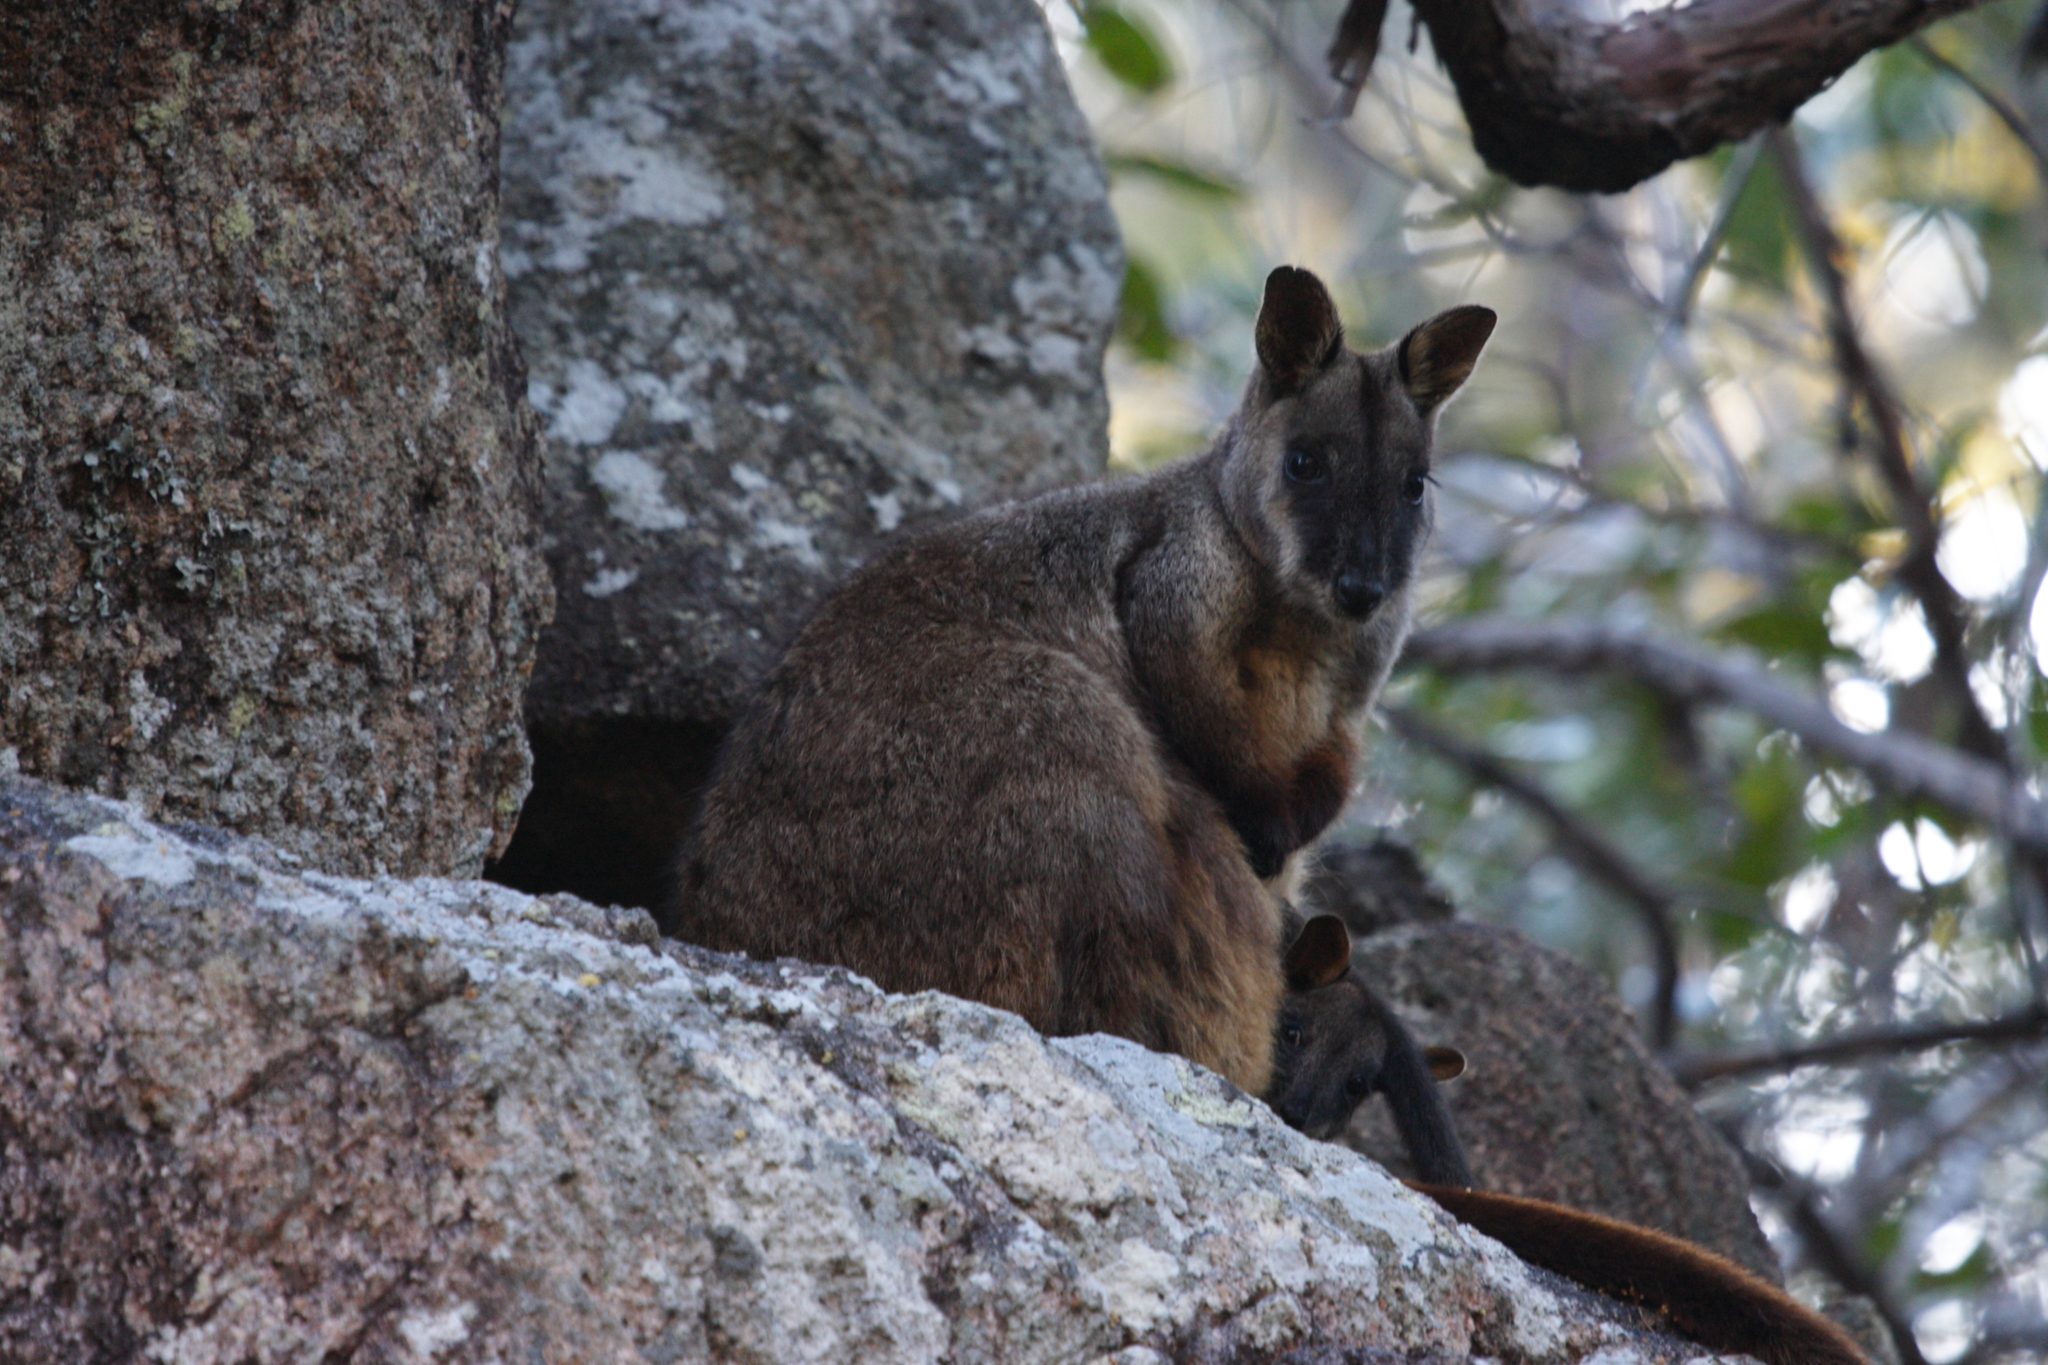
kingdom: Animalia
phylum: Chordata
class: Mammalia
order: Diprotodontia
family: Macropodidae
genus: Petrogale
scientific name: Petrogale penicillata
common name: Brush-tailed rock-wallaby
